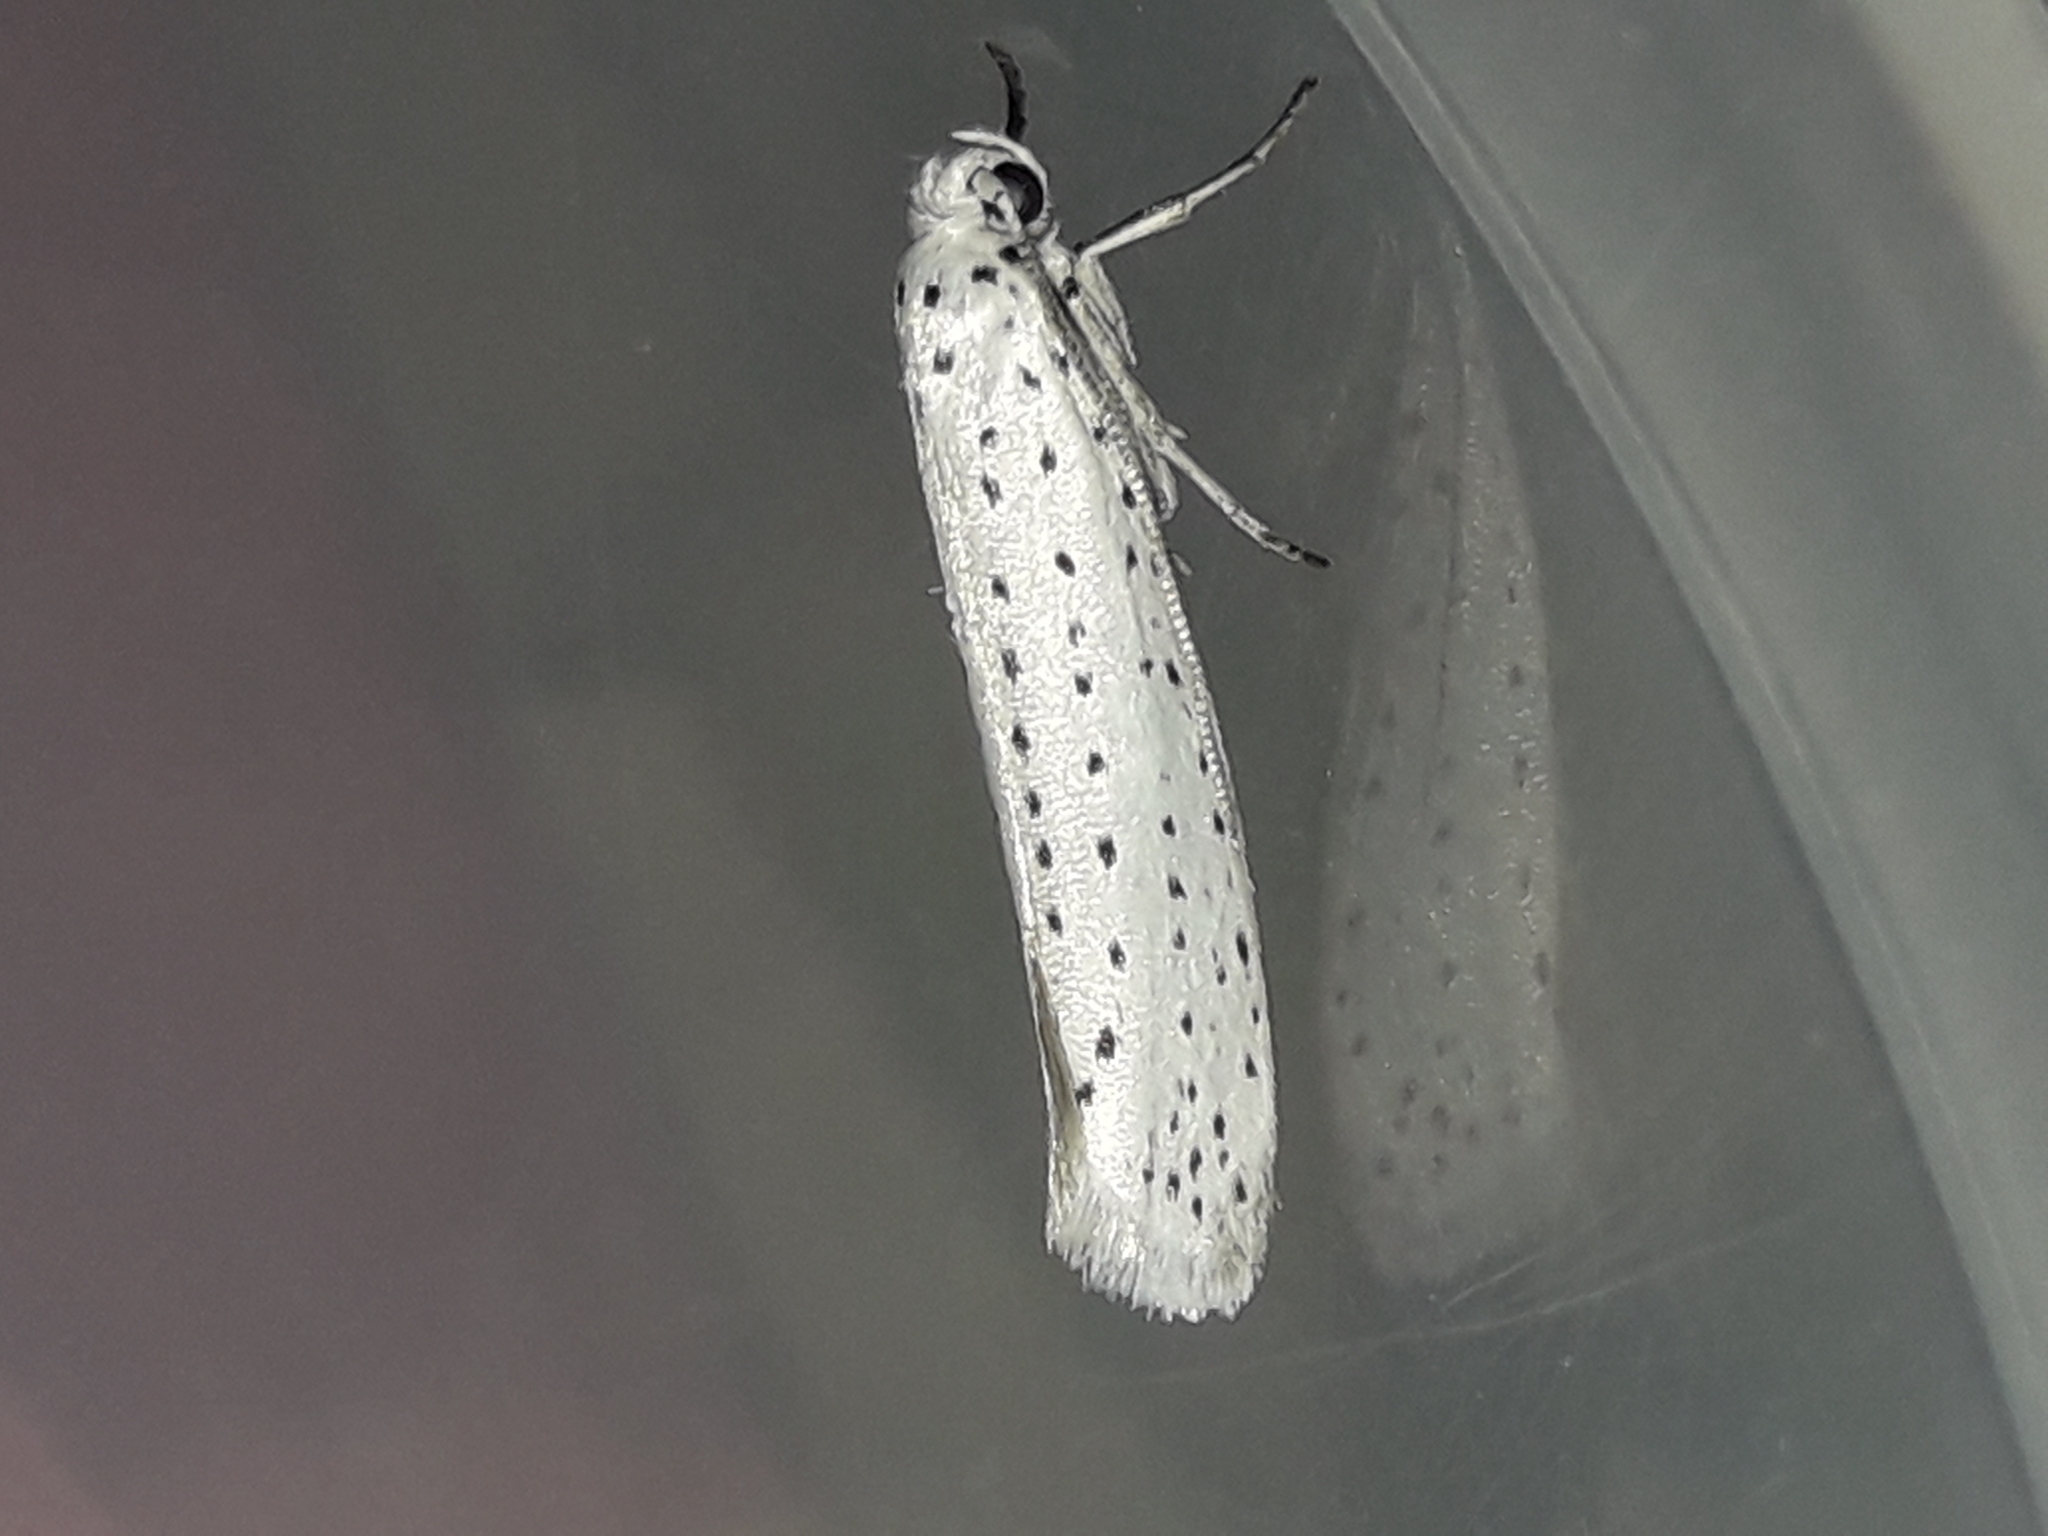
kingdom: Animalia
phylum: Arthropoda
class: Insecta
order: Lepidoptera
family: Yponomeutidae
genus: Yponomeuta
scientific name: Yponomeuta evonymella
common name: Bird-cherry ermine
